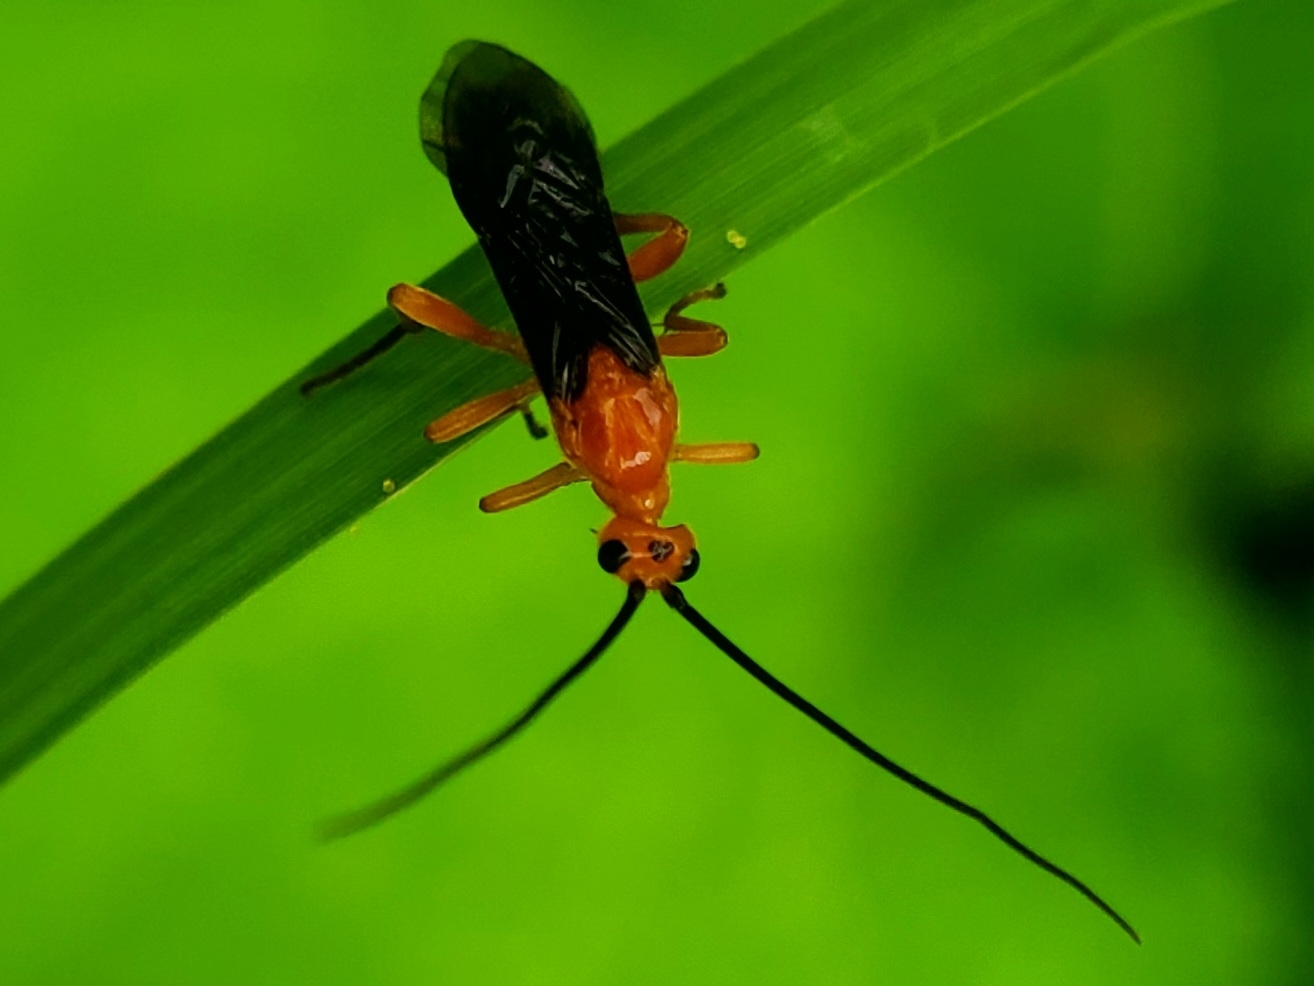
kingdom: Animalia
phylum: Arthropoda
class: Insecta
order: Hymenoptera
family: Braconidae
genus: Aleiodes
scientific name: Aleiodes politiceps
